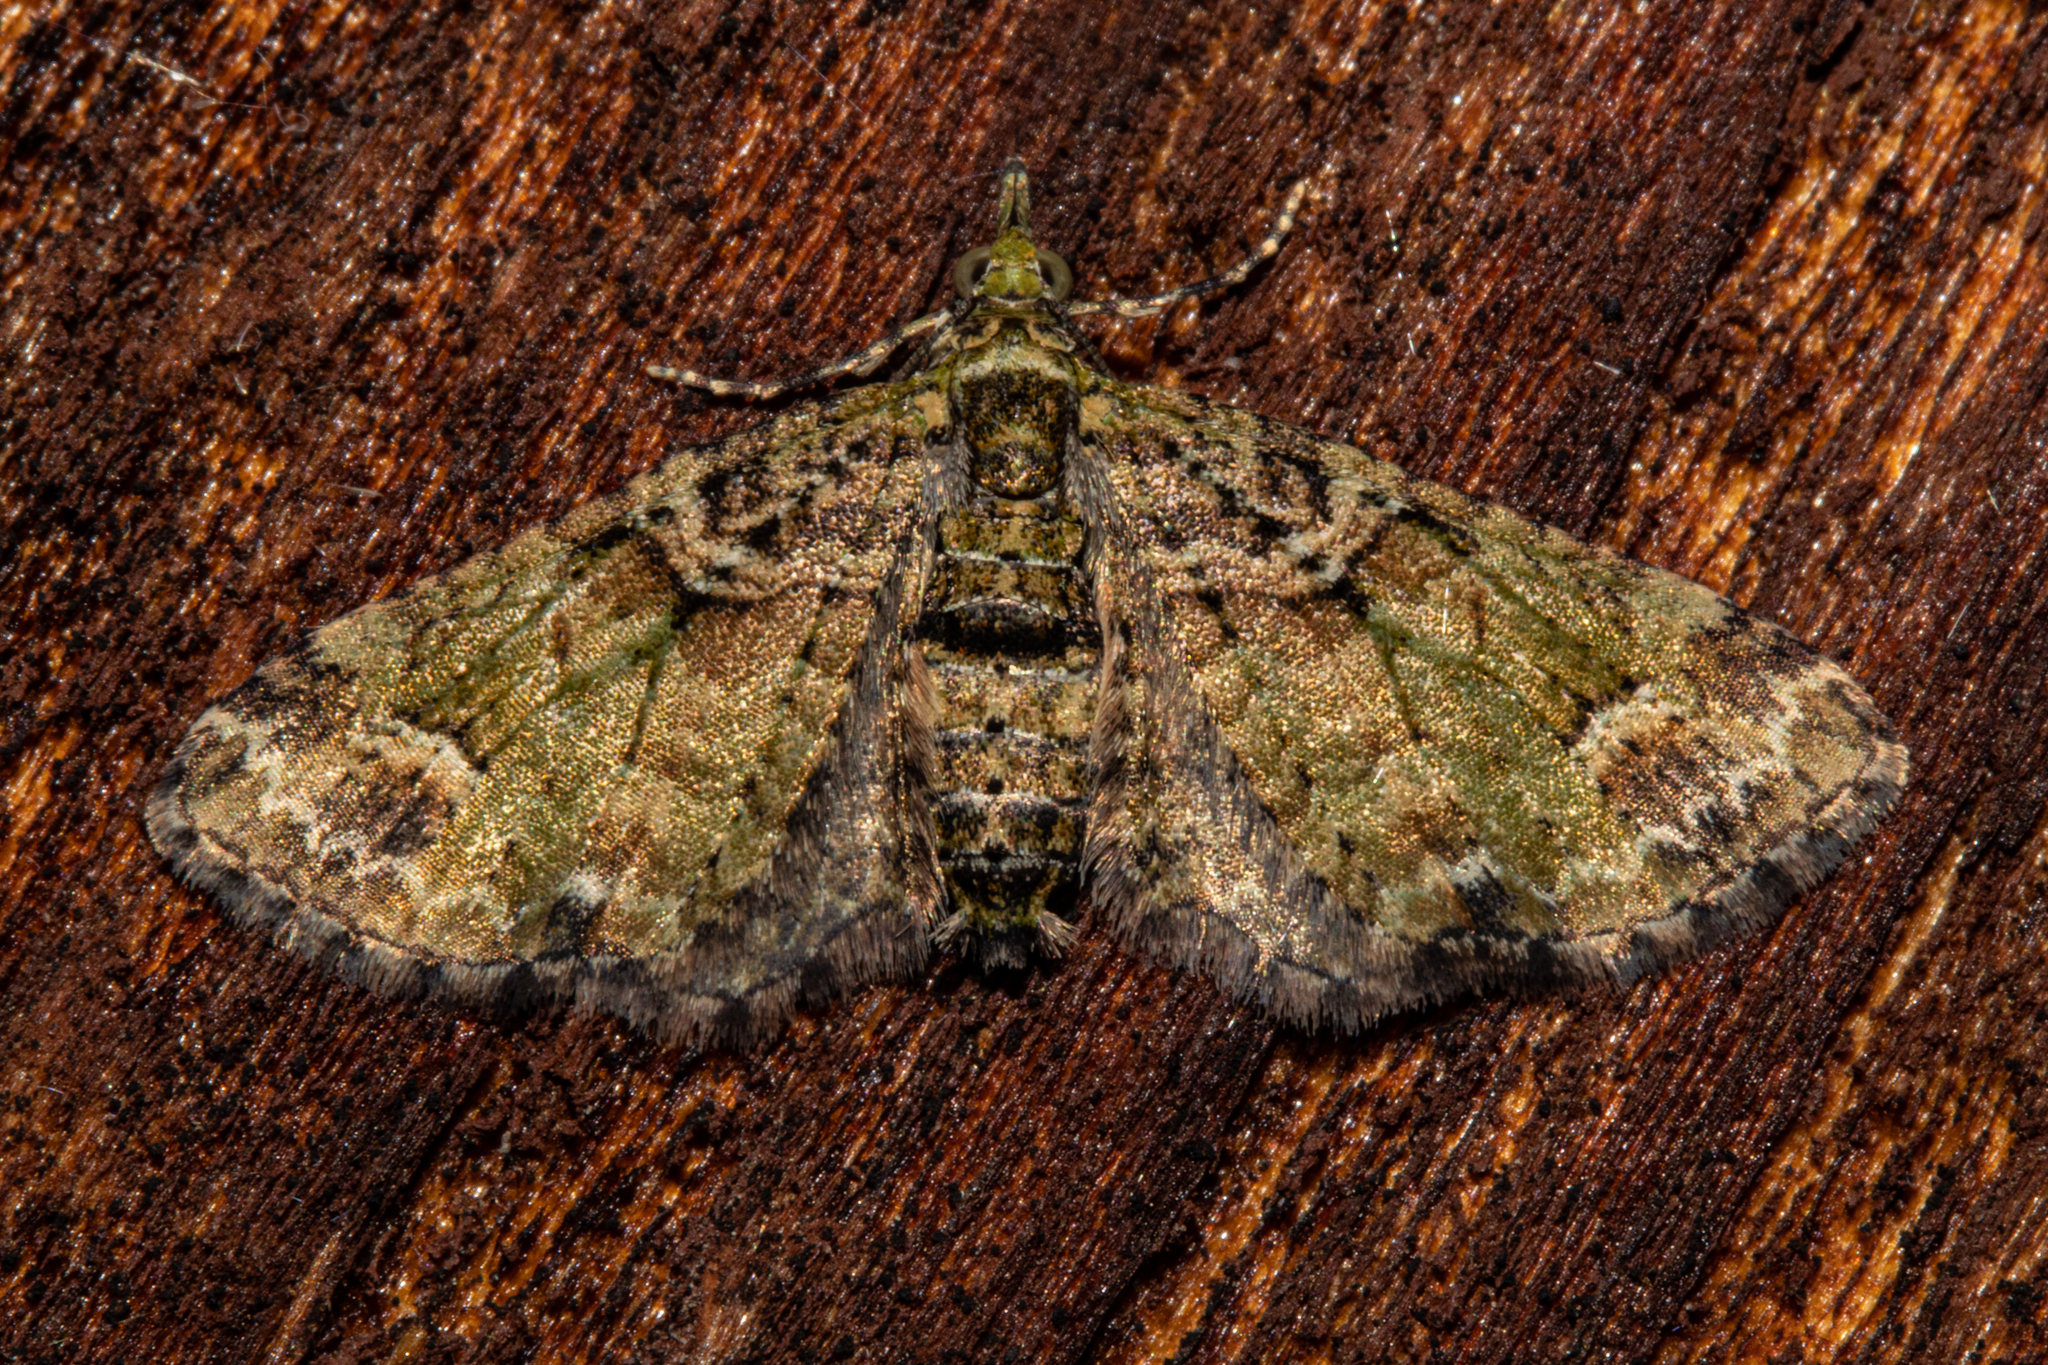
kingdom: Animalia
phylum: Arthropoda
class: Insecta
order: Lepidoptera
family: Geometridae
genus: Idaea
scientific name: Idaea mutanda
